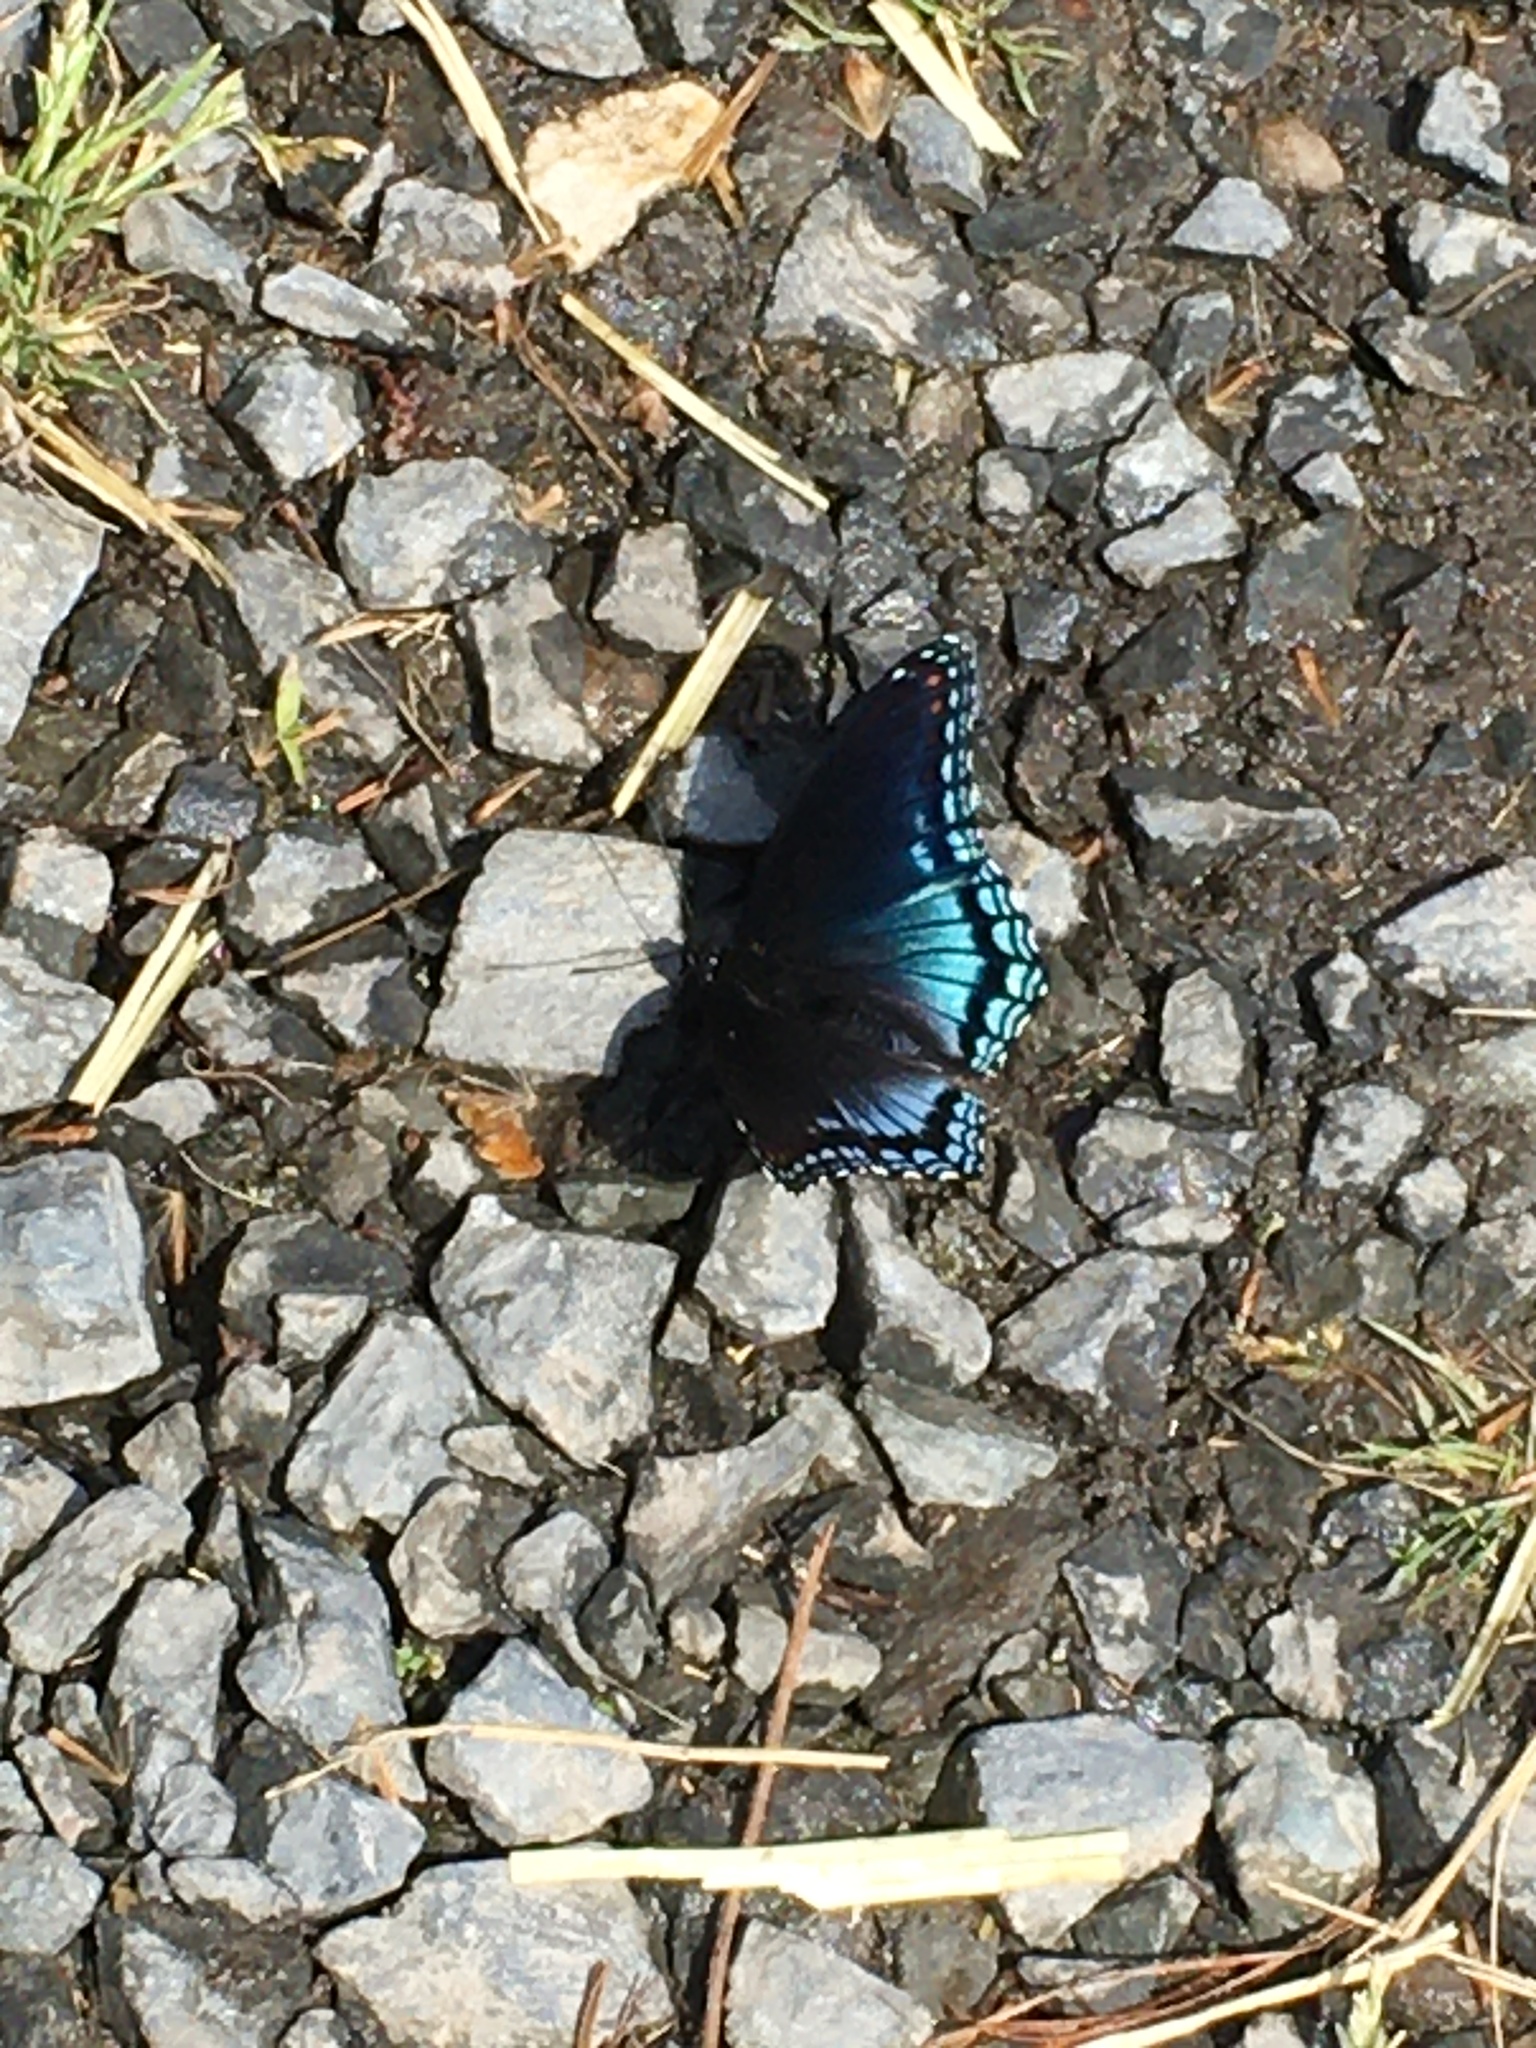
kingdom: Animalia
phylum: Arthropoda
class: Insecta
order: Lepidoptera
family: Nymphalidae
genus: Limenitis
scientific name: Limenitis astyanax
